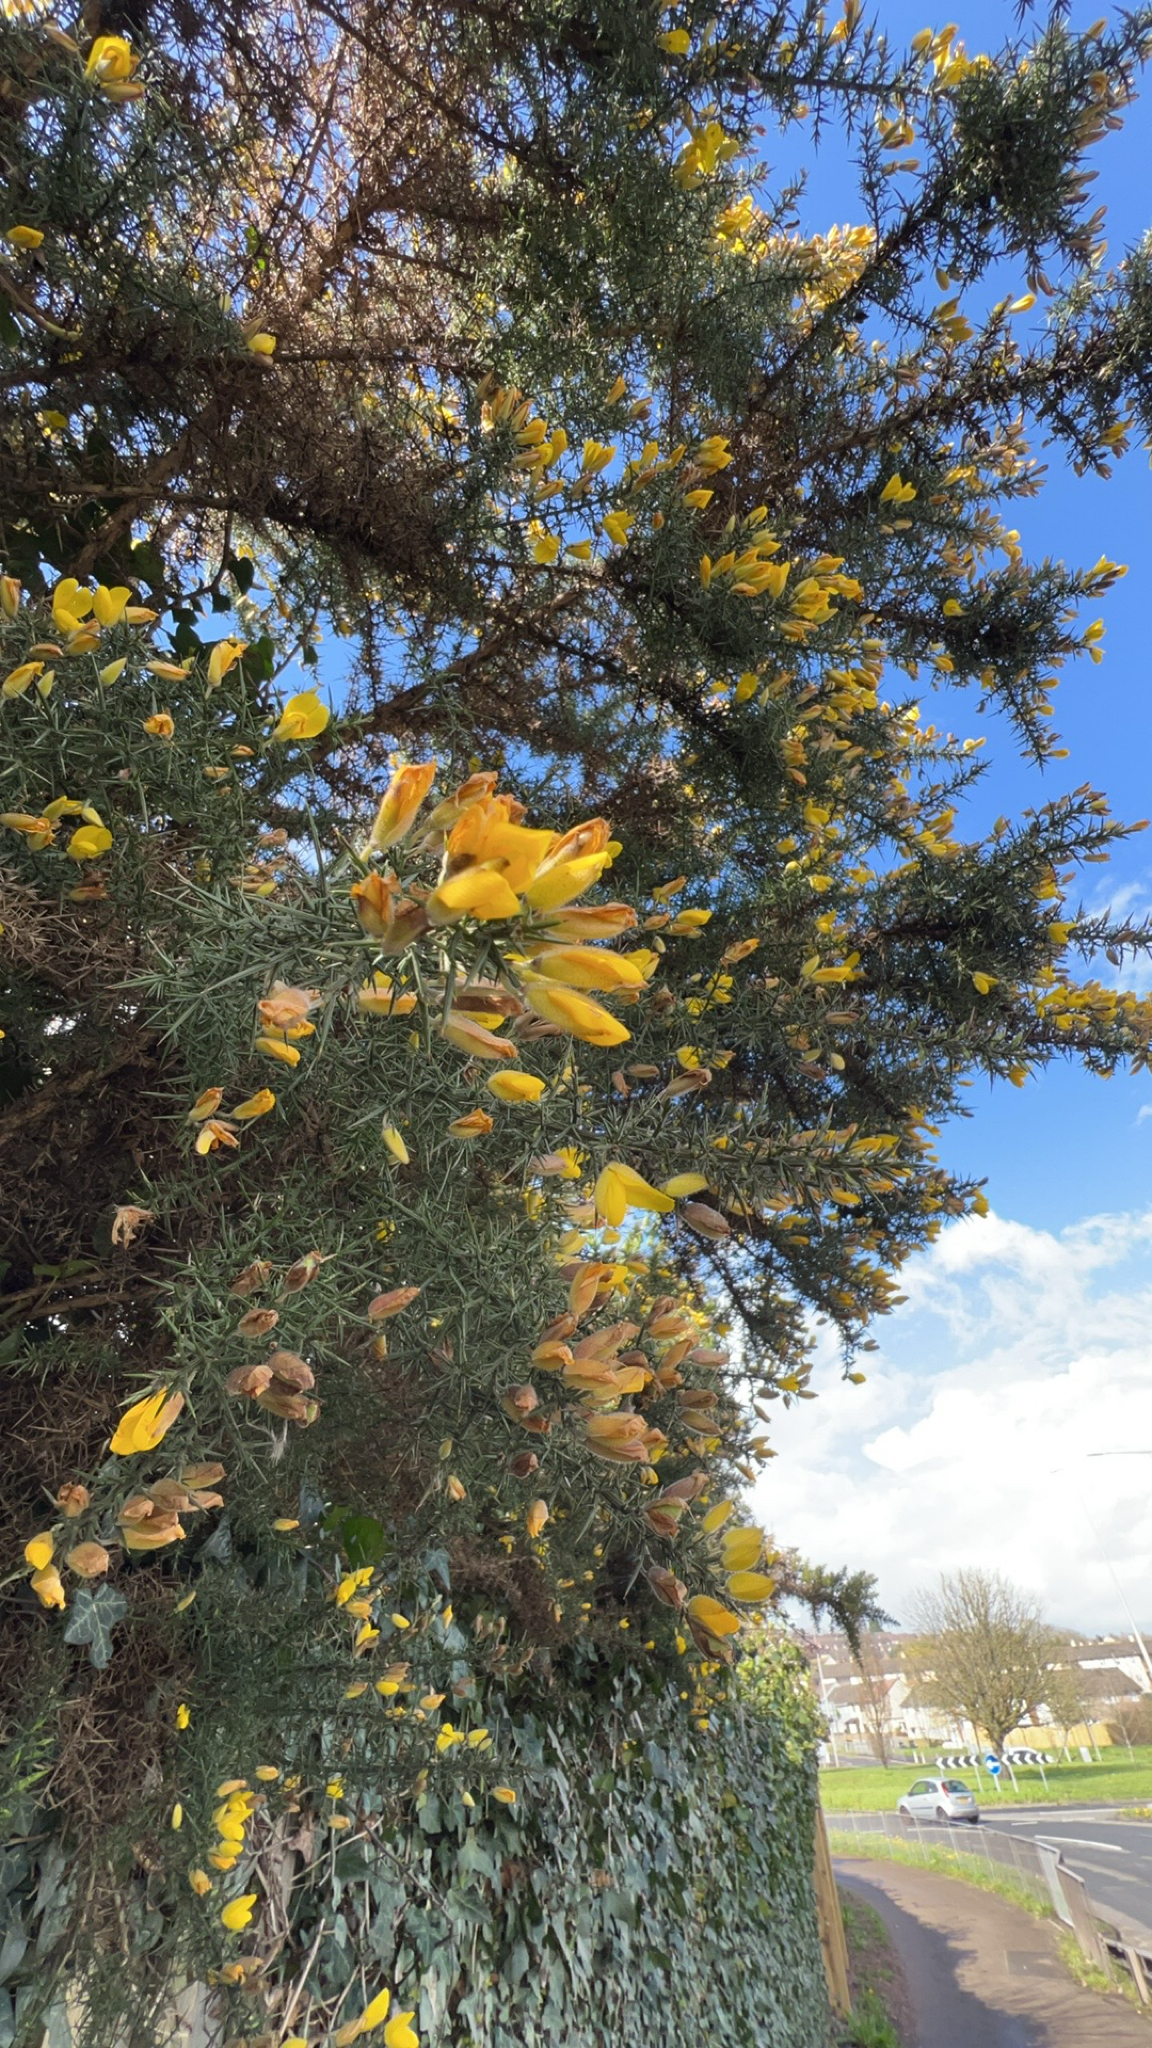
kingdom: Plantae
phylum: Tracheophyta
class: Magnoliopsida
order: Fabales
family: Fabaceae
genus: Ulex
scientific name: Ulex europaeus
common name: Common gorse
